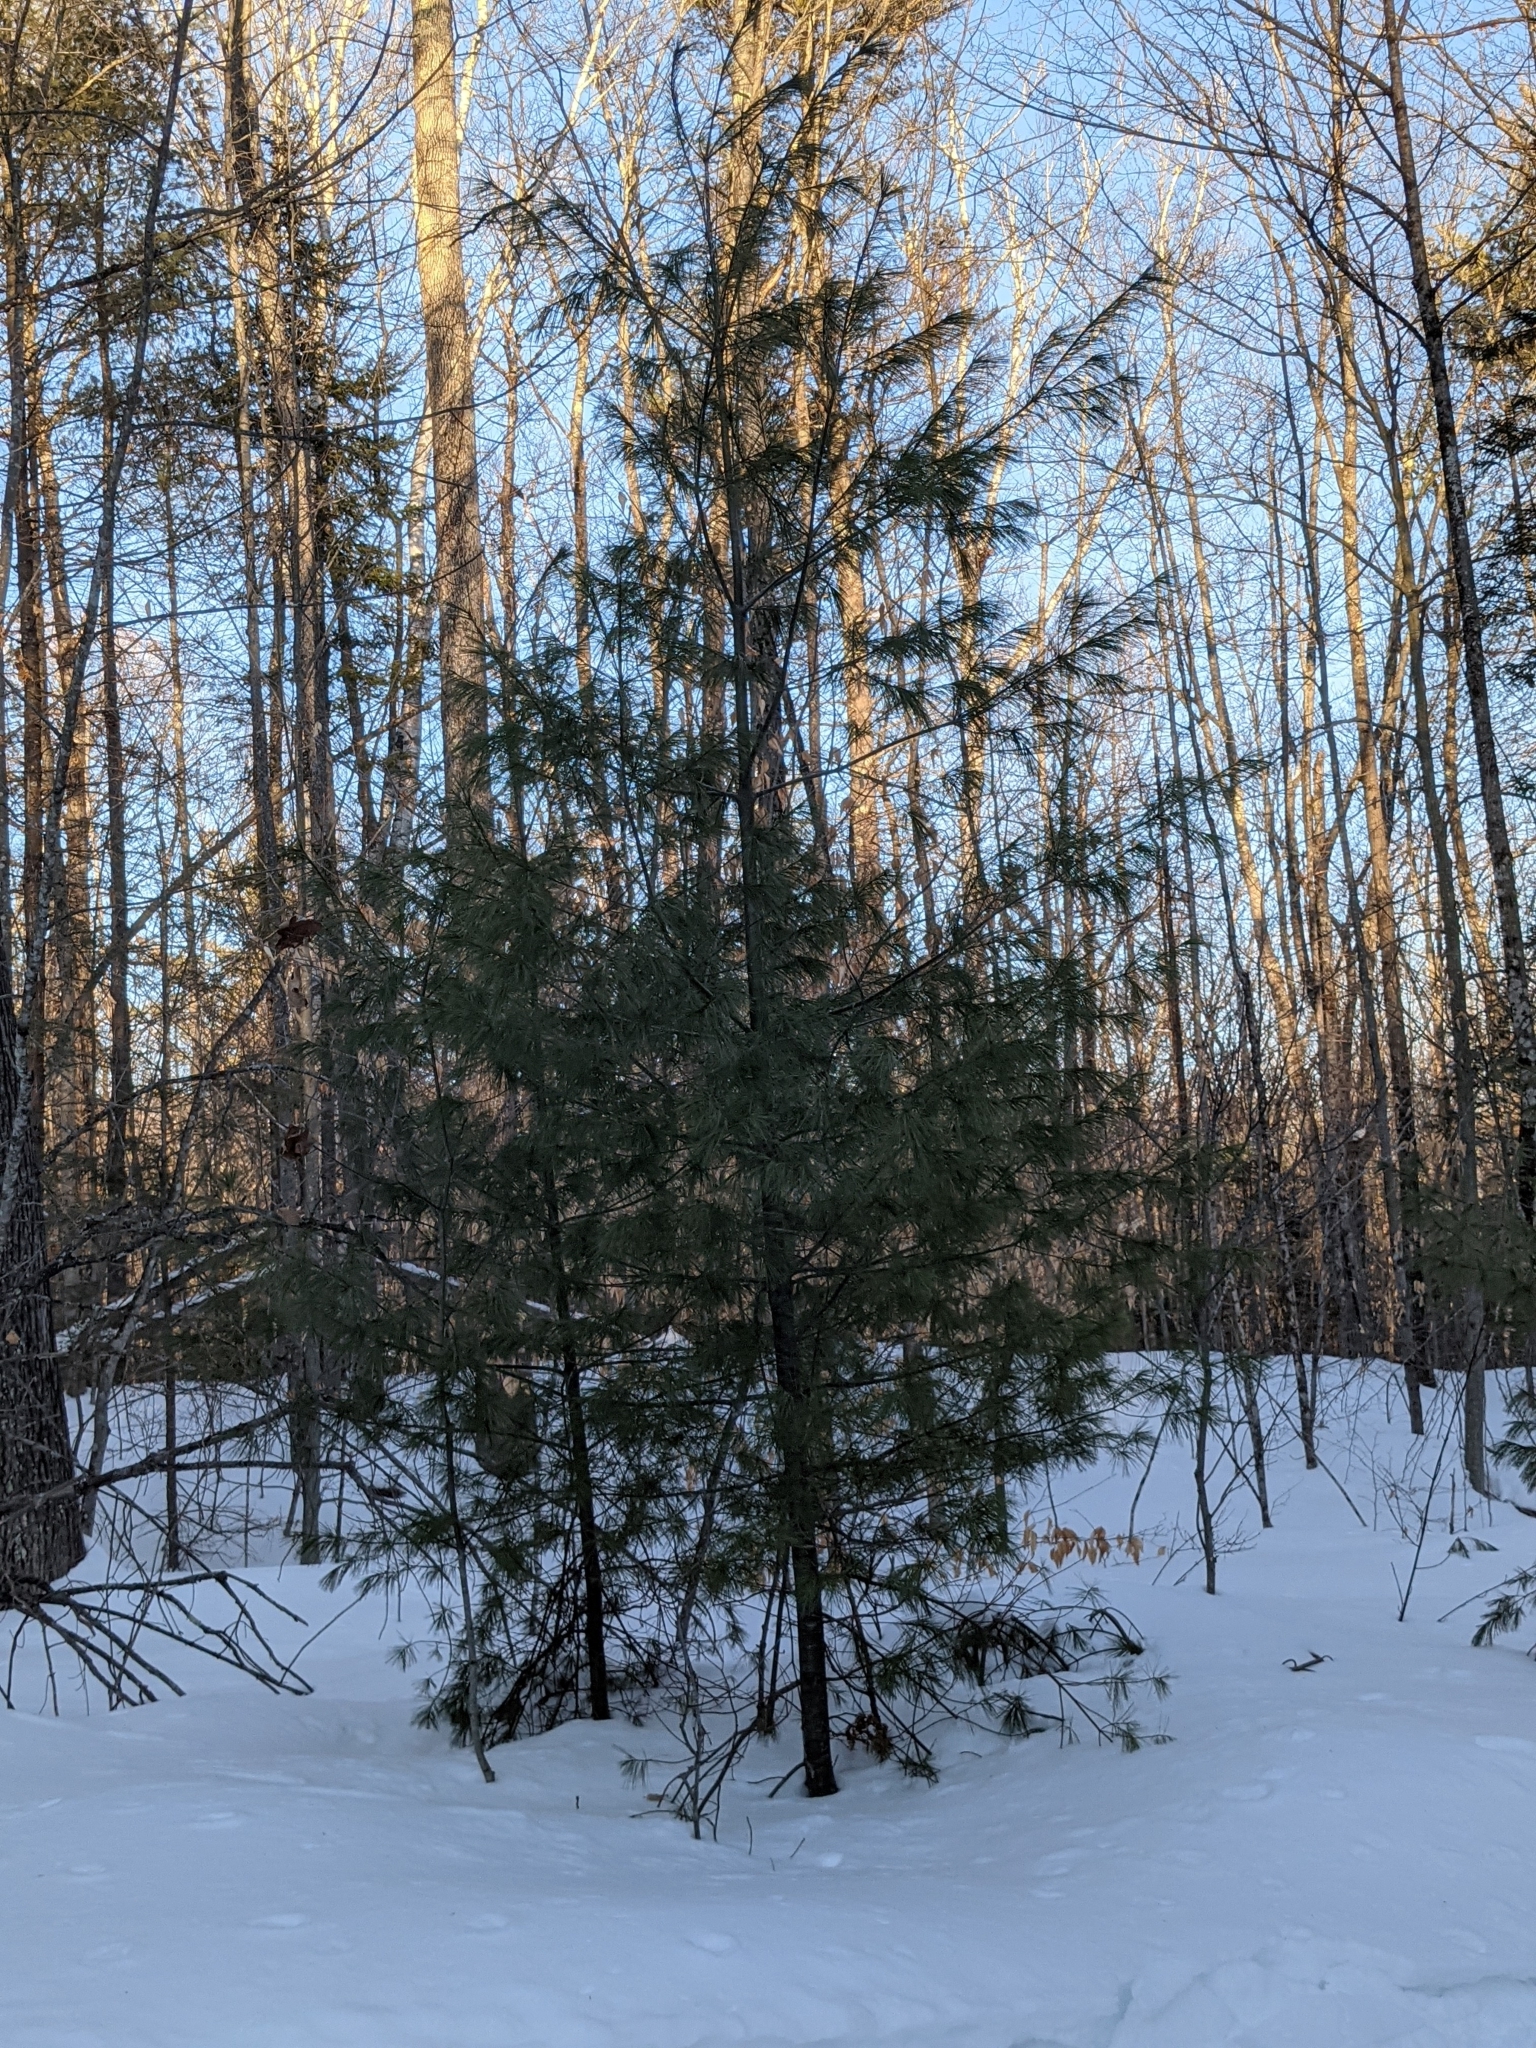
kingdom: Plantae
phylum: Tracheophyta
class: Pinopsida
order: Pinales
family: Pinaceae
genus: Pinus
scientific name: Pinus strobus
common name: Weymouth pine
